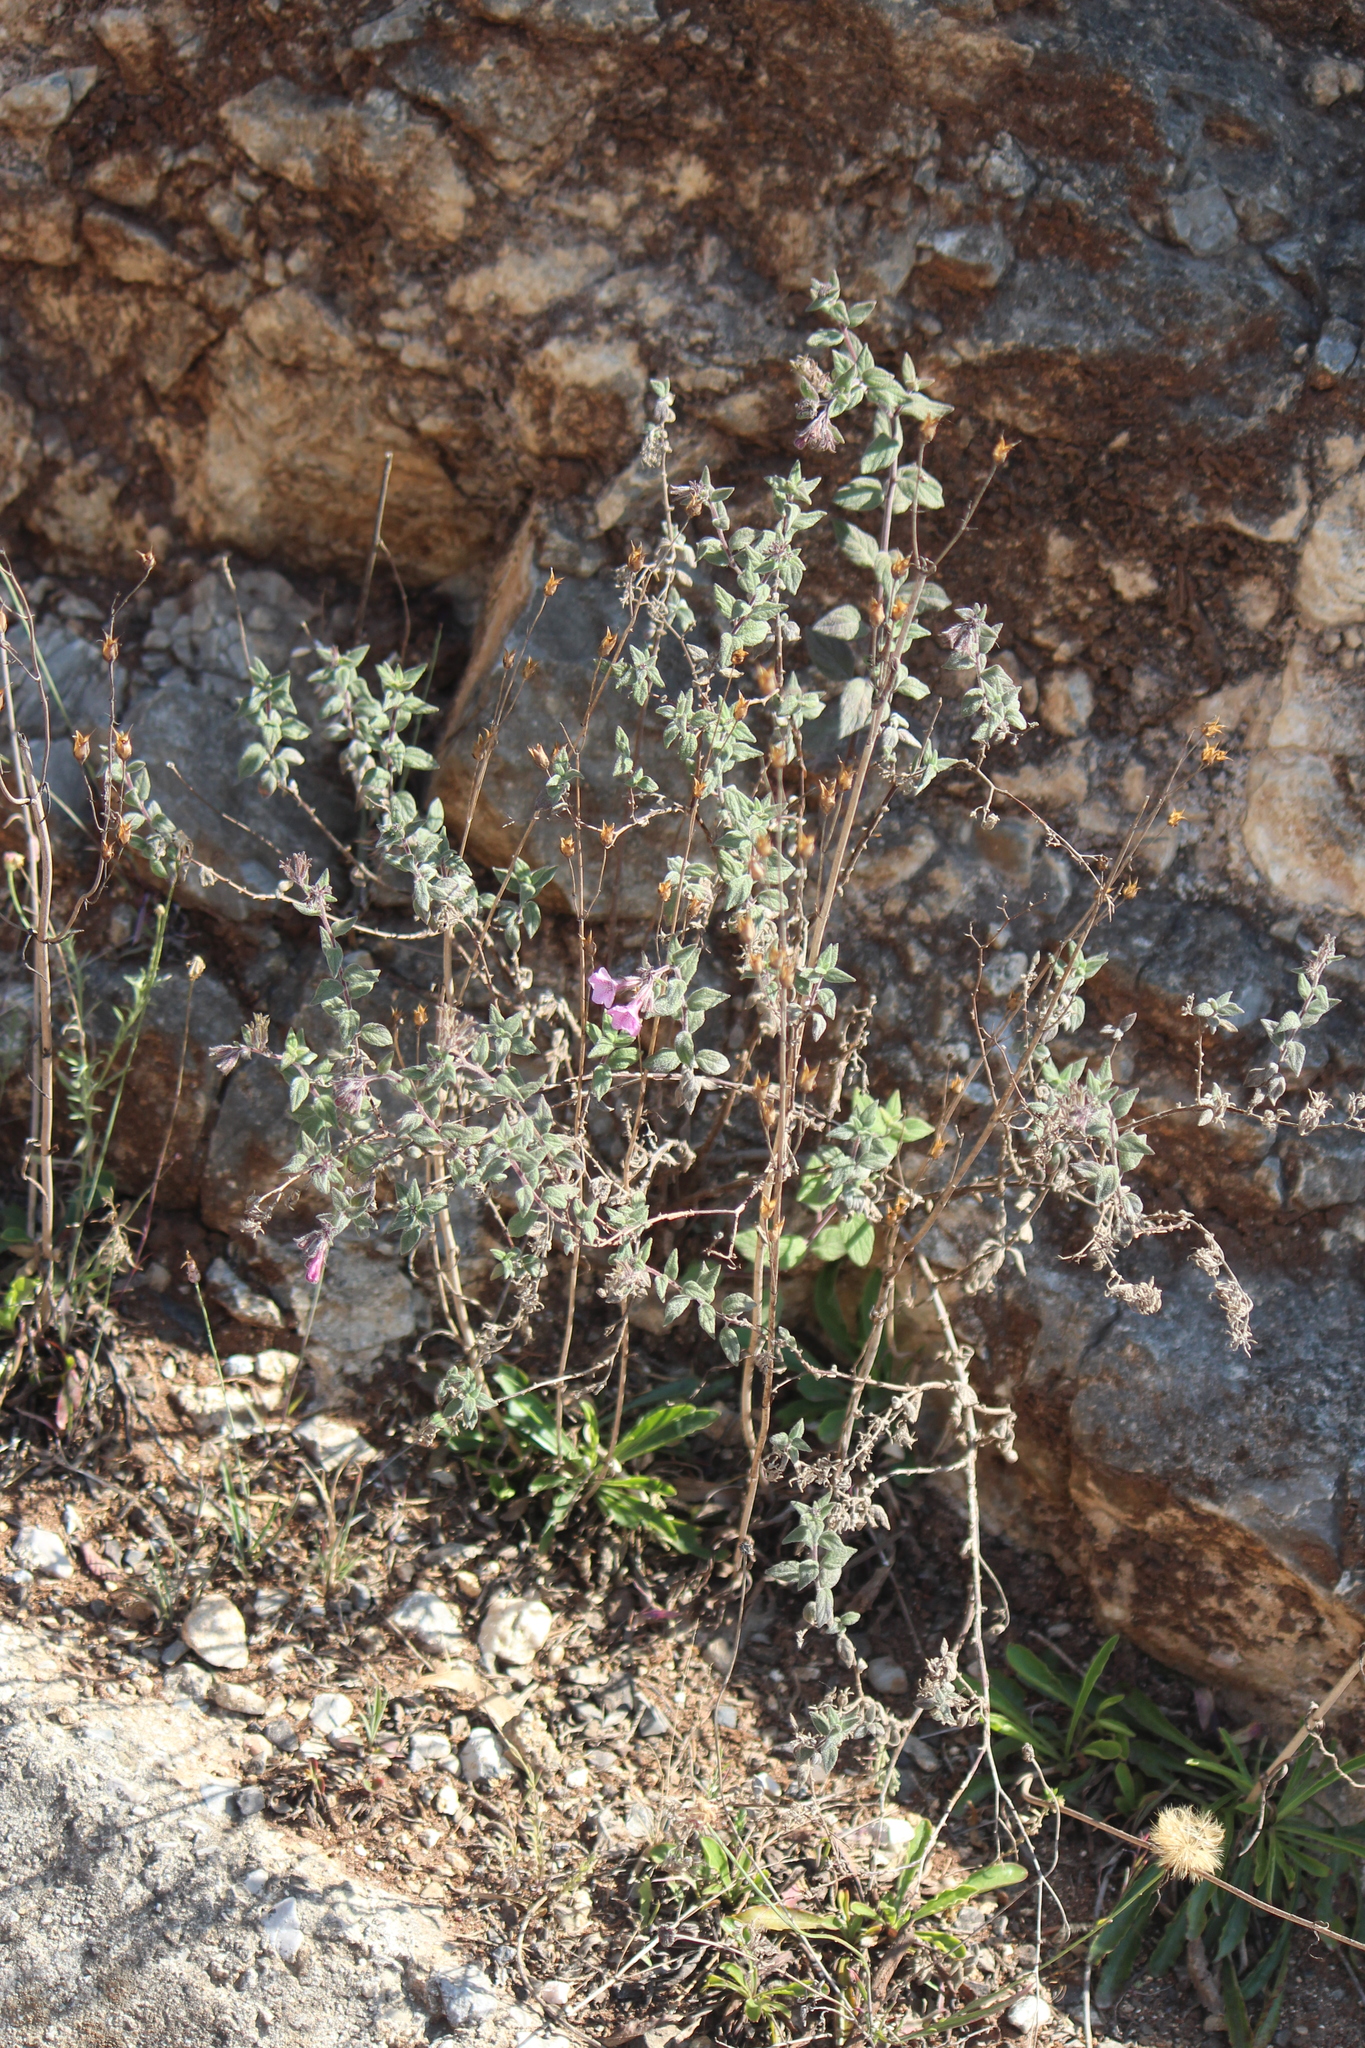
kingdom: Plantae
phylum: Tracheophyta
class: Magnoliopsida
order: Boraginales
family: Namaceae
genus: Nama
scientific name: Nama sericea
